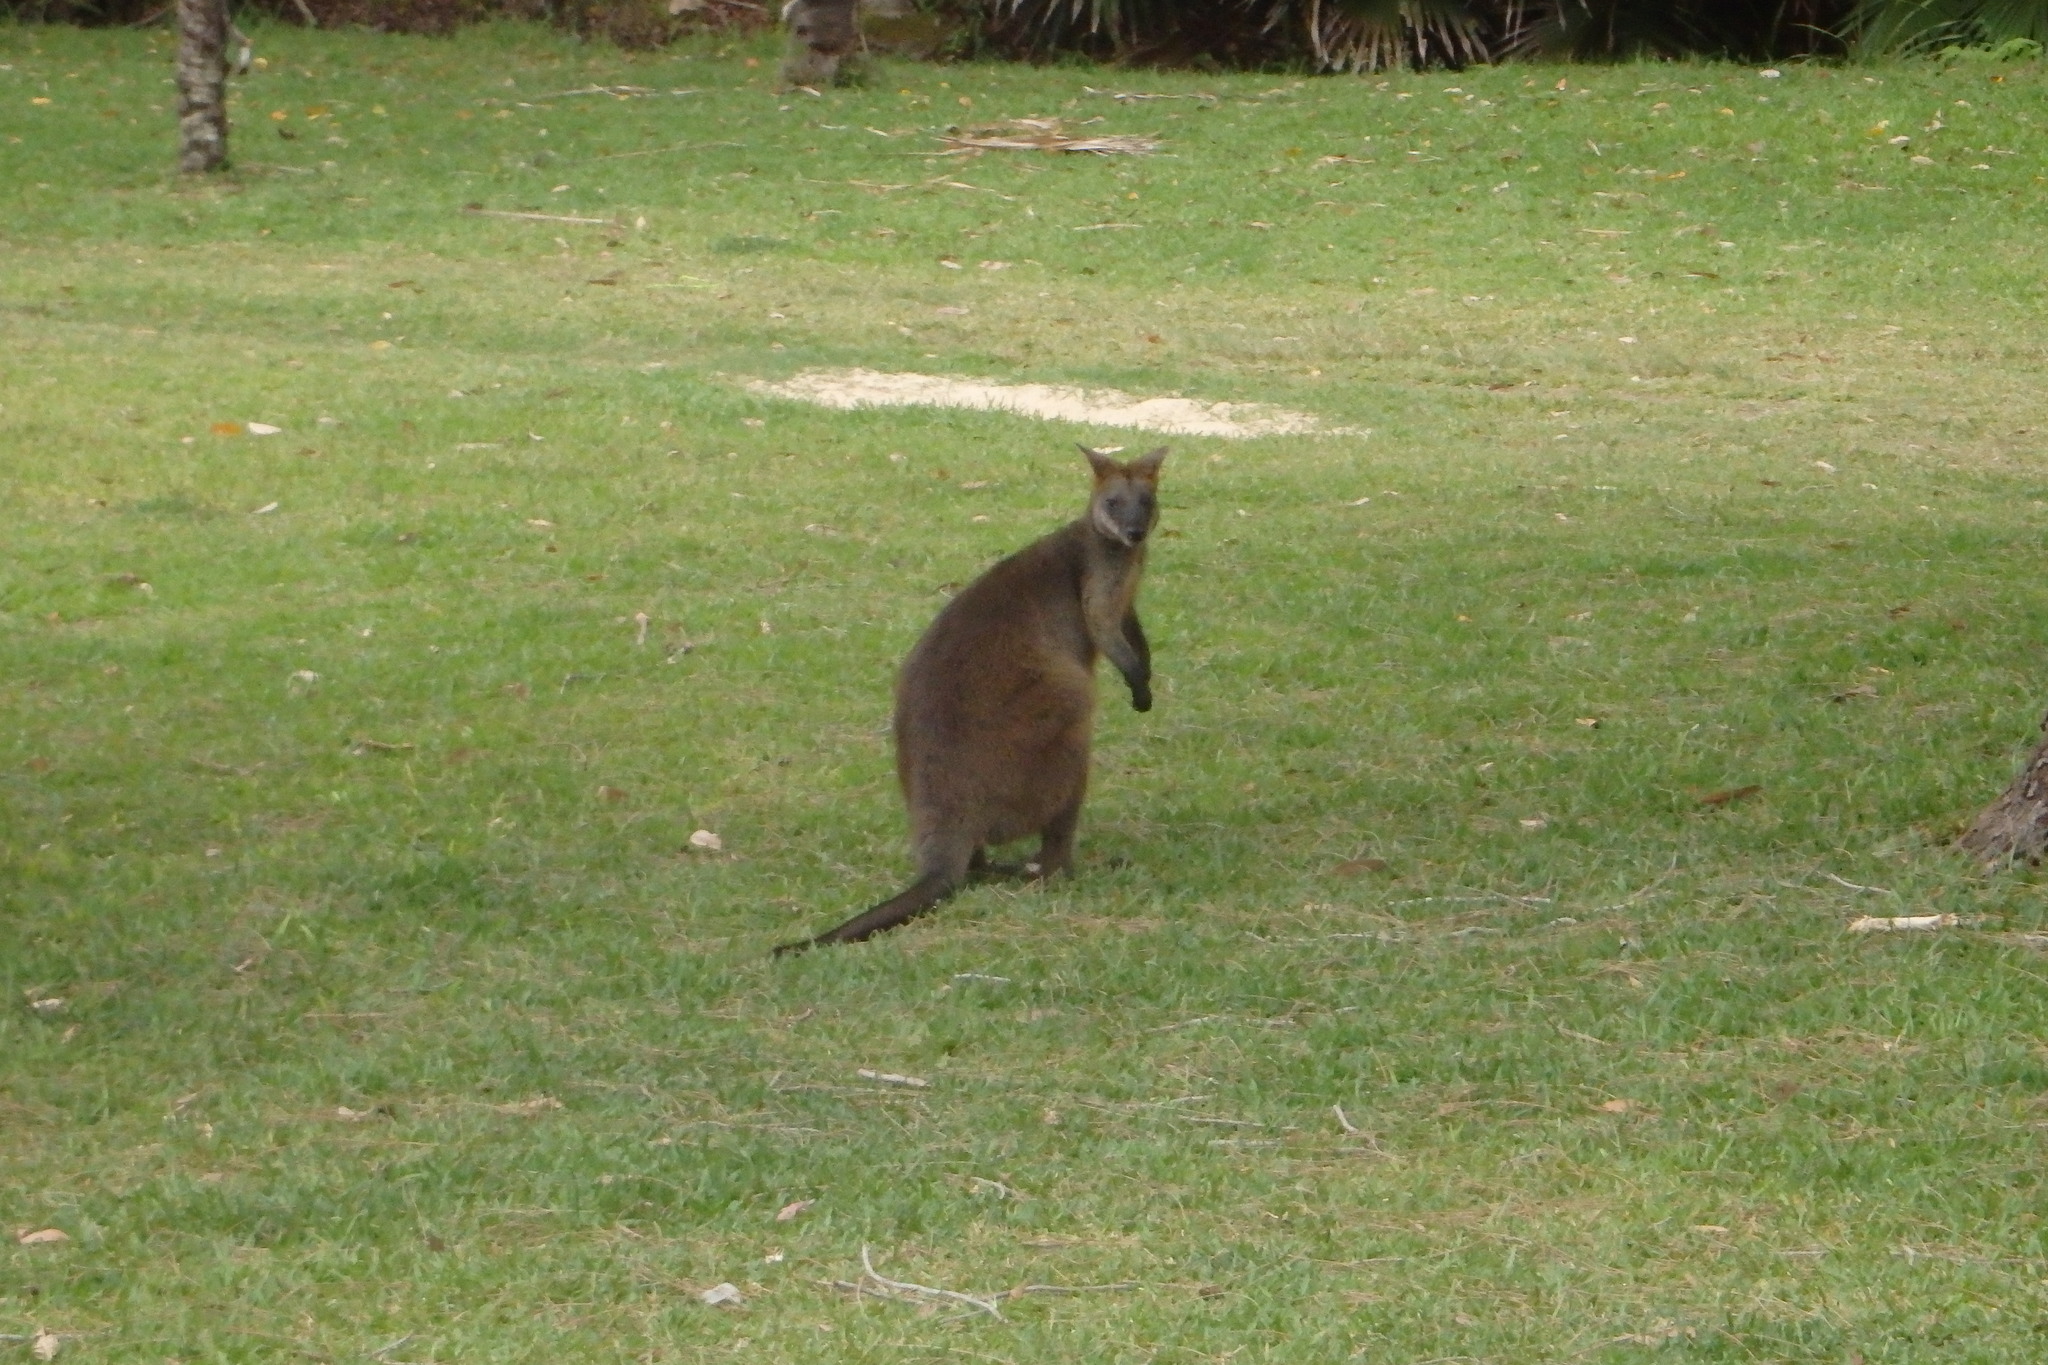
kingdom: Animalia
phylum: Chordata
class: Mammalia
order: Diprotodontia
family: Macropodidae
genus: Wallabia
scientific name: Wallabia bicolor
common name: Swamp wallaby
